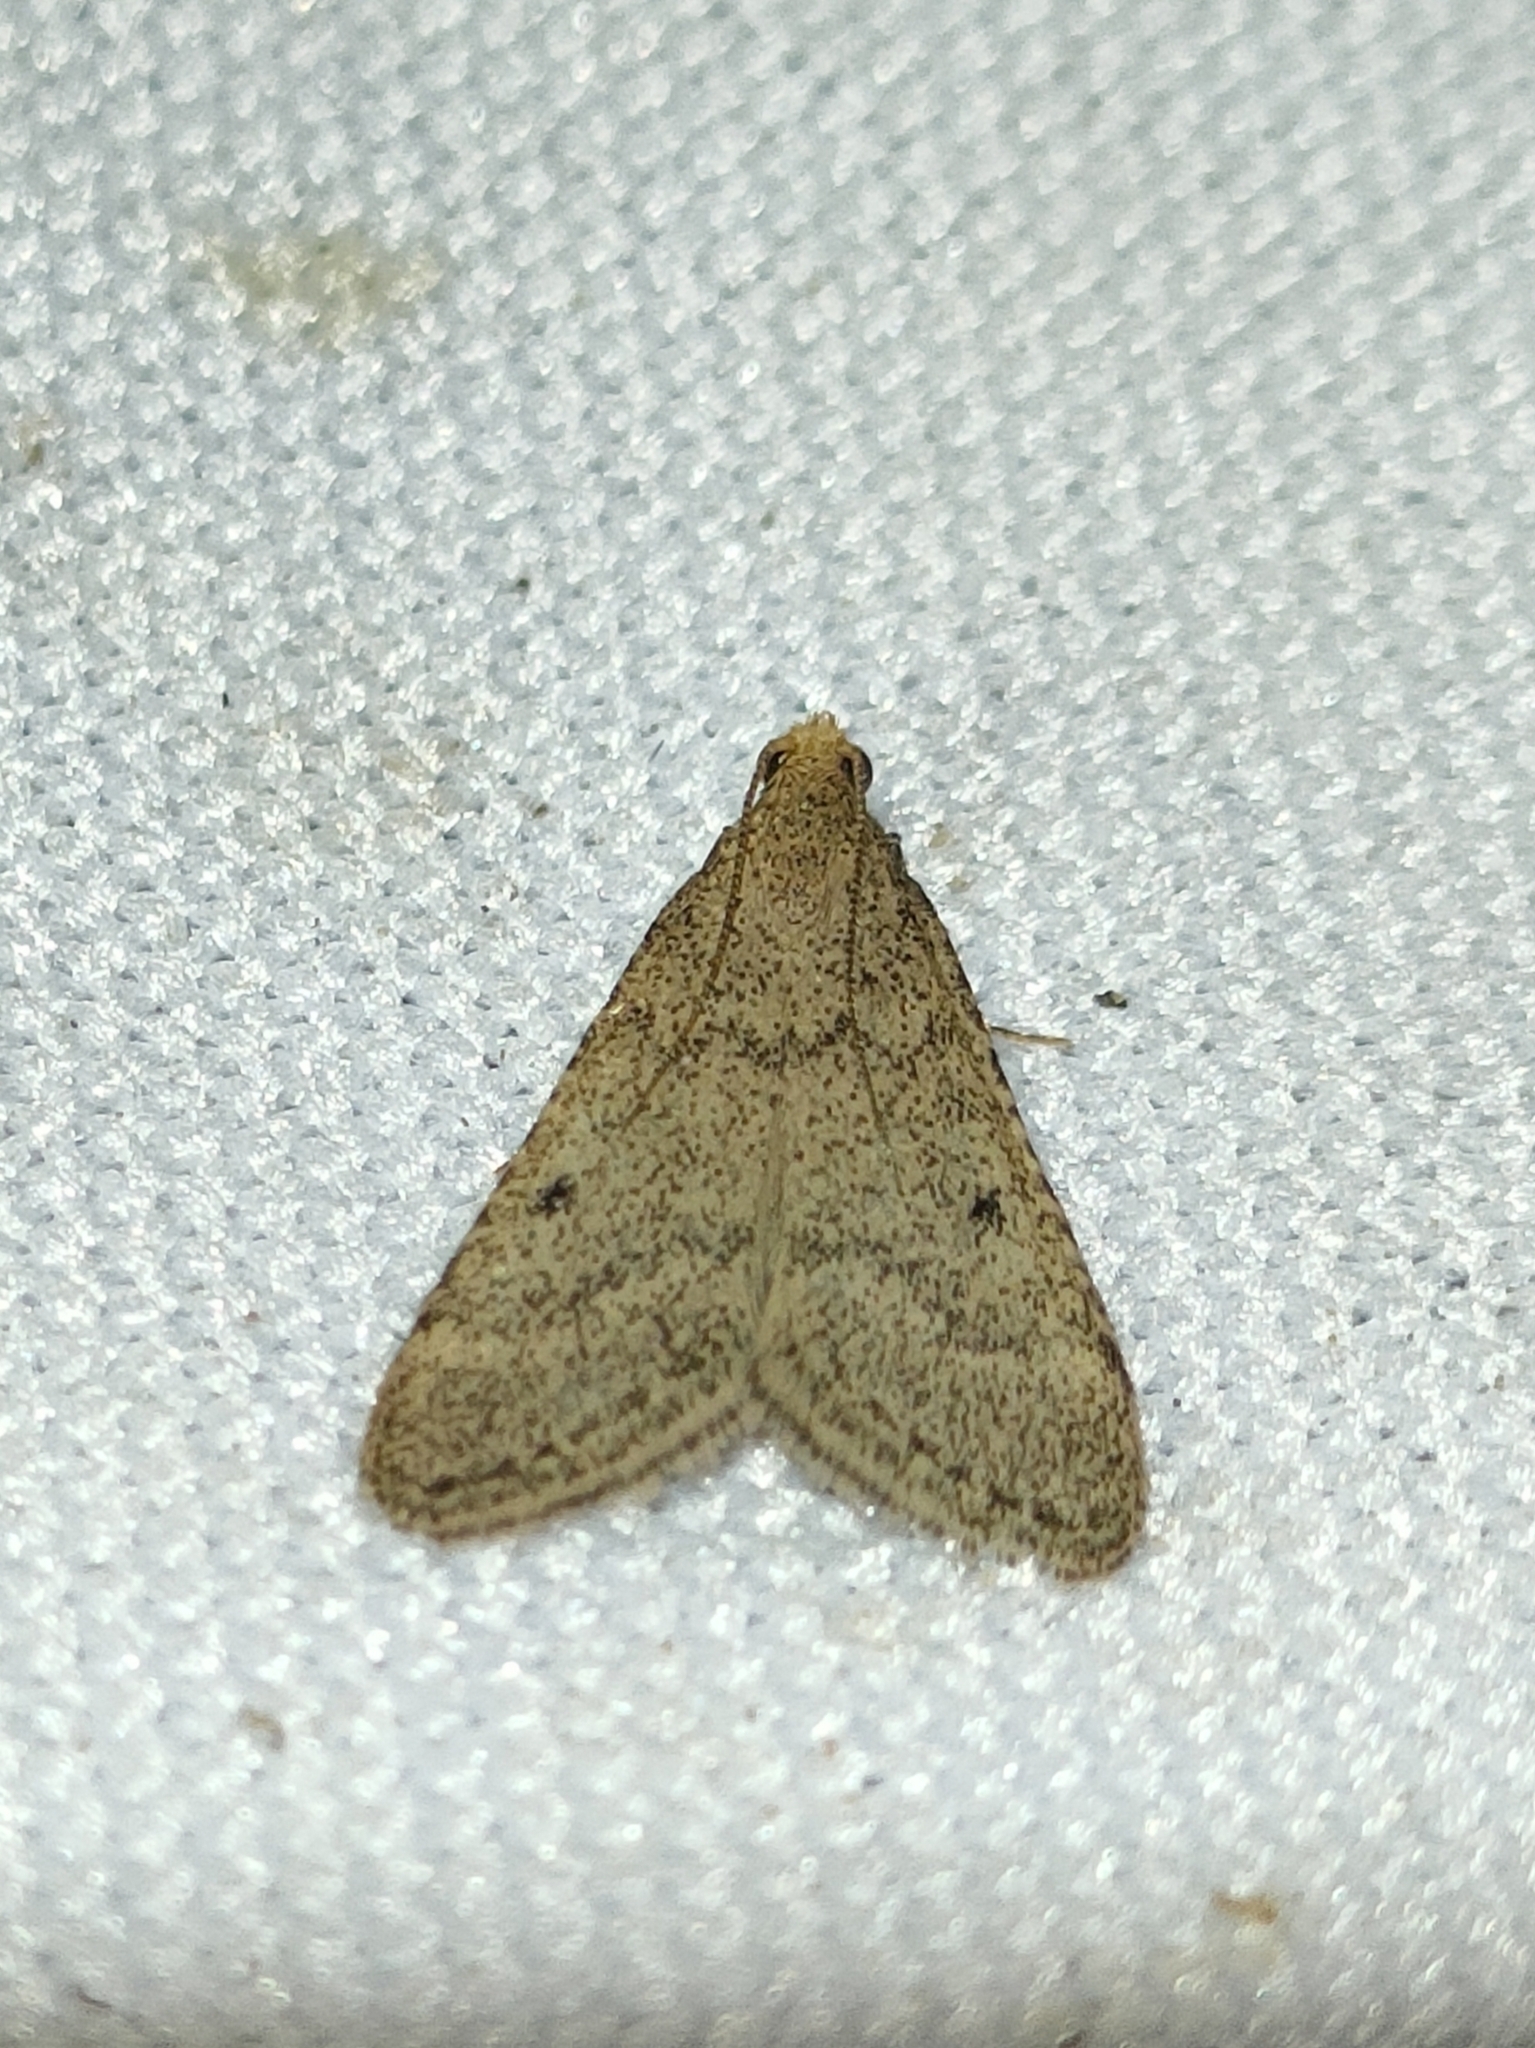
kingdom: Animalia
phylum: Arthropoda
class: Insecta
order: Lepidoptera
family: Pyralidae
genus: Bostra
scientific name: Bostra obsoletalis
